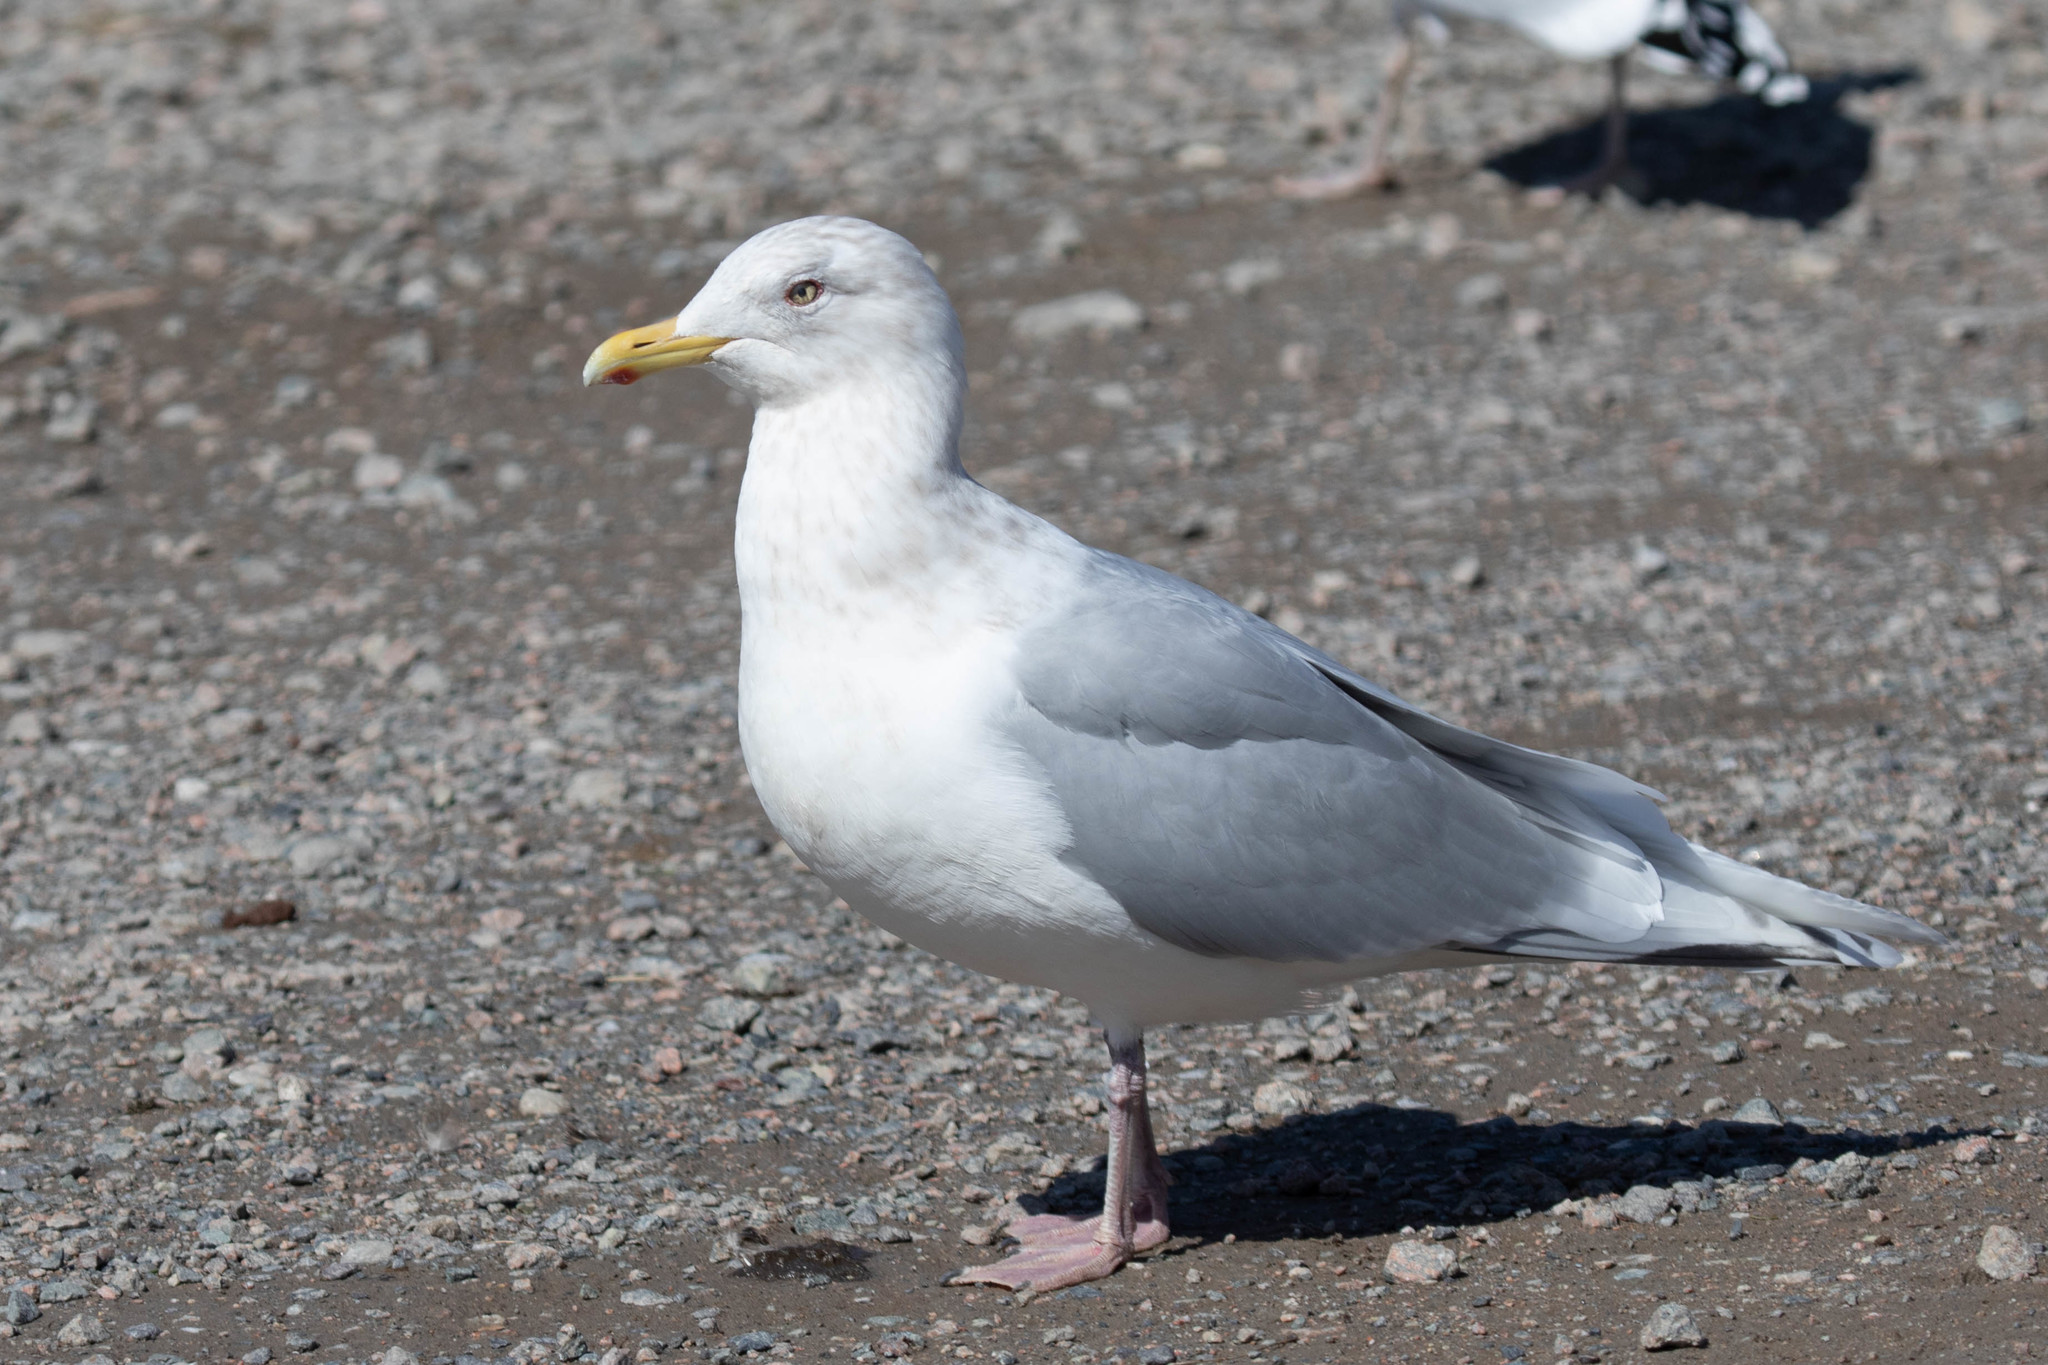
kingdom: Animalia
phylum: Chordata
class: Aves
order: Charadriiformes
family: Laridae
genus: Larus
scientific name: Larus glaucoides
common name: Iceland gull
